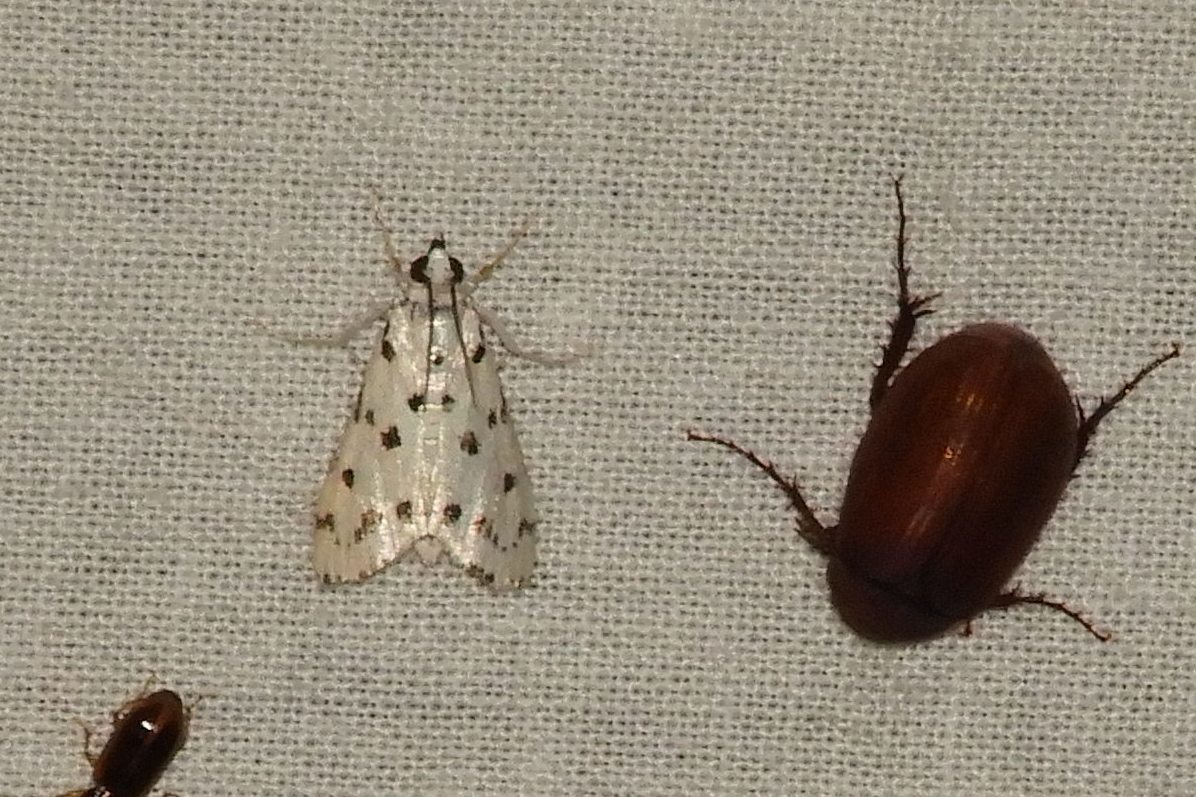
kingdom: Animalia
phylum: Arthropoda
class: Insecta
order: Lepidoptera
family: Crambidae
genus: Eustixia
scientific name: Eustixia pupula
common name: American cabbage pearl
